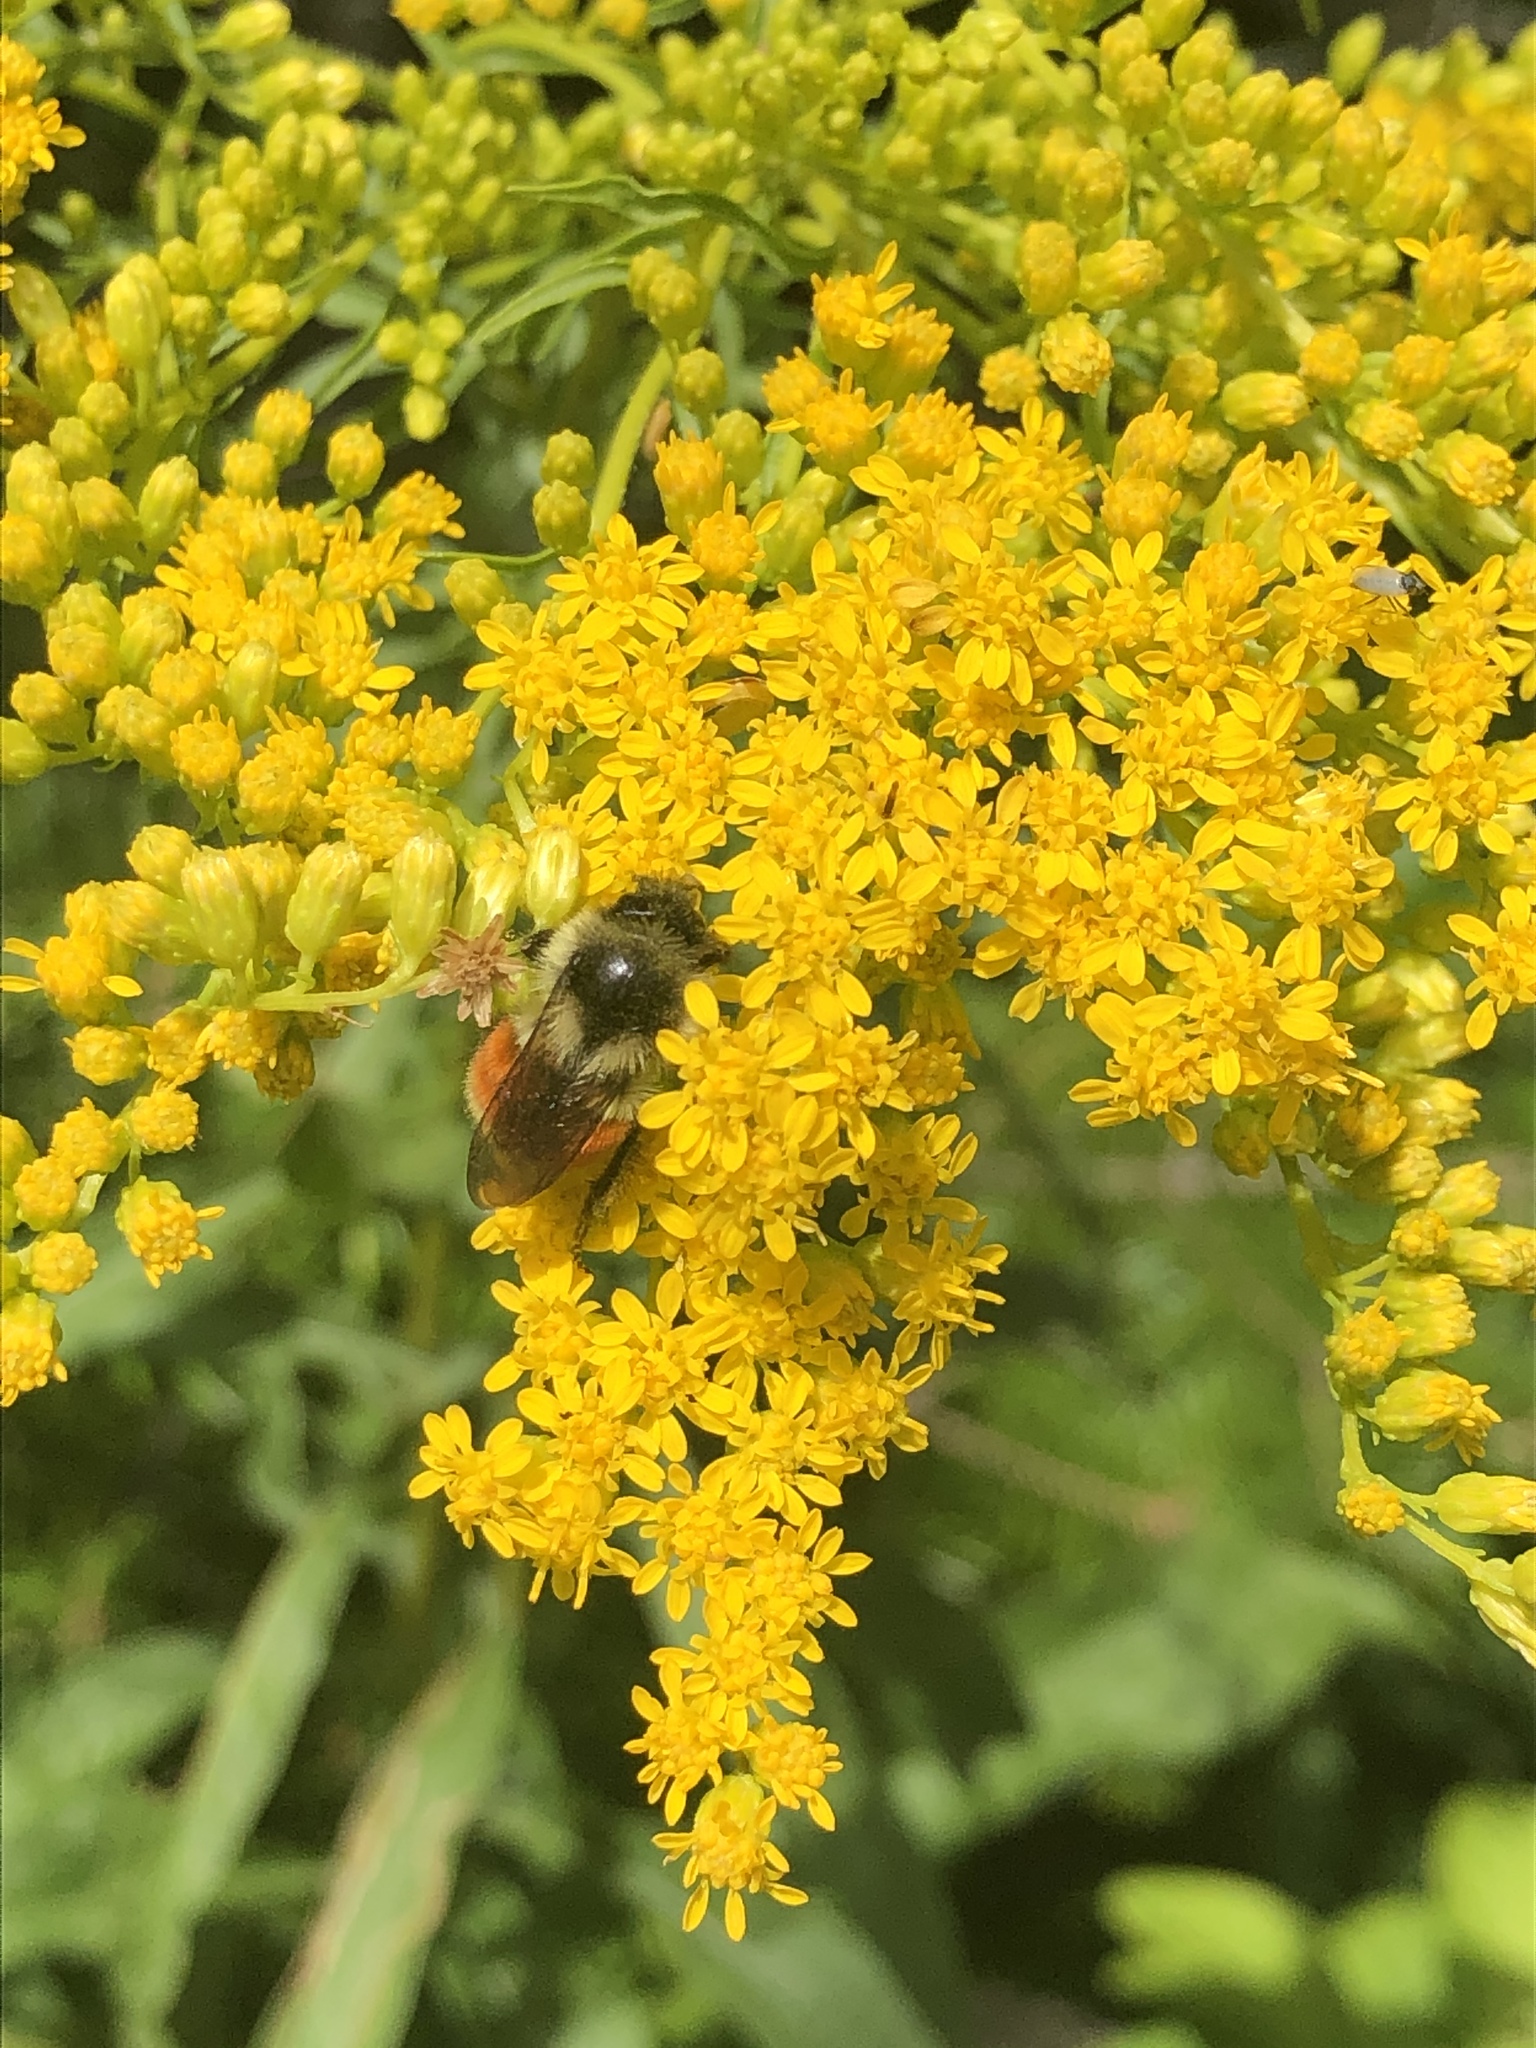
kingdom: Animalia
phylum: Arthropoda
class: Insecta
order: Hymenoptera
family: Apidae
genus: Bombus
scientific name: Bombus ternarius
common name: Tri-colored bumble bee
